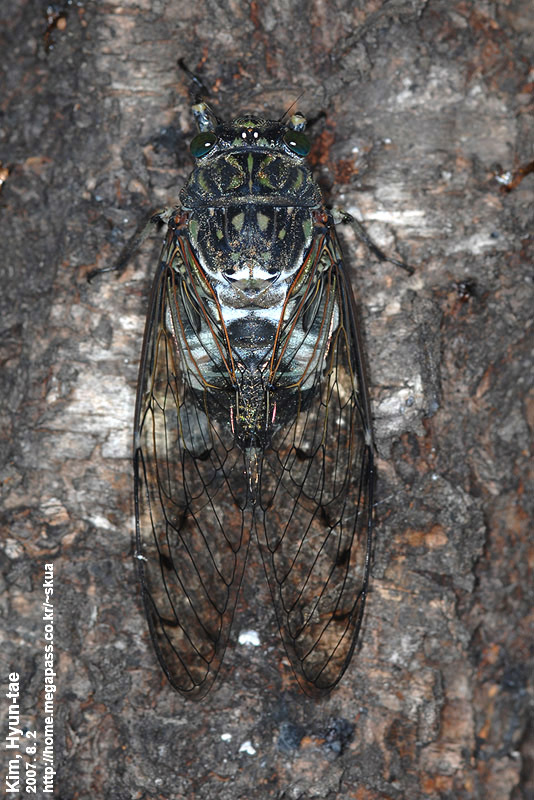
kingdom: Animalia
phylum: Arthropoda
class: Insecta
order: Hemiptera
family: Cicadidae
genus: Hyalessa
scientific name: Hyalessa maculaticollis
